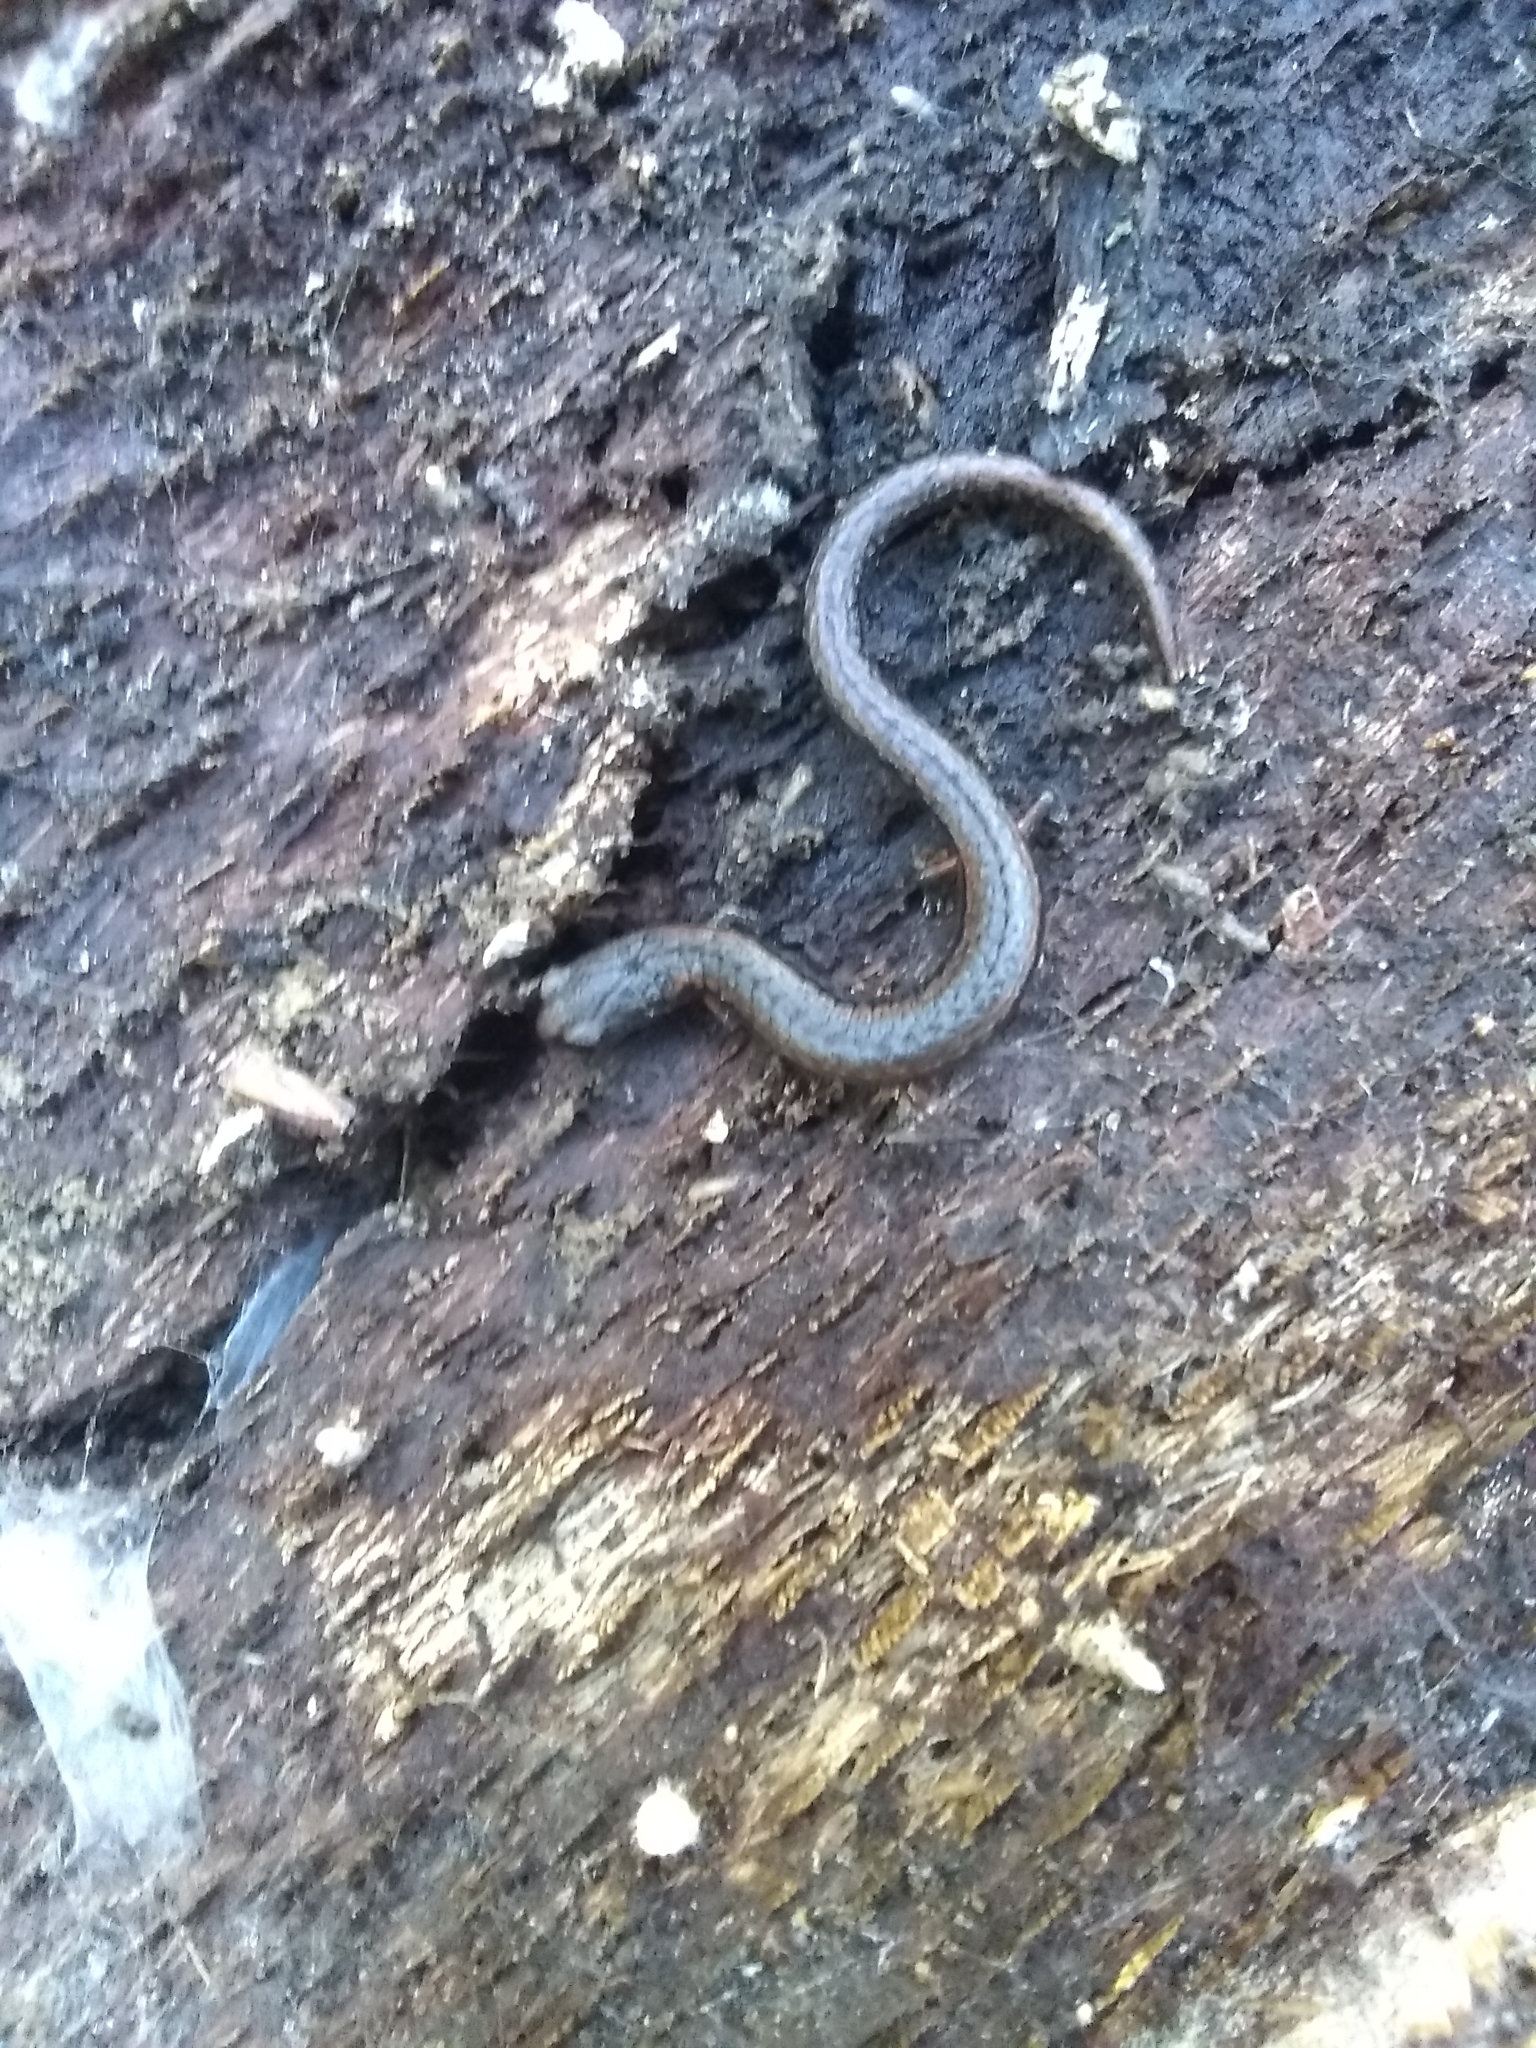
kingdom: Animalia
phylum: Chordata
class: Amphibia
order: Caudata
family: Plethodontidae
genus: Batrachoseps
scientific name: Batrachoseps attenuatus
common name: California slender salamander
